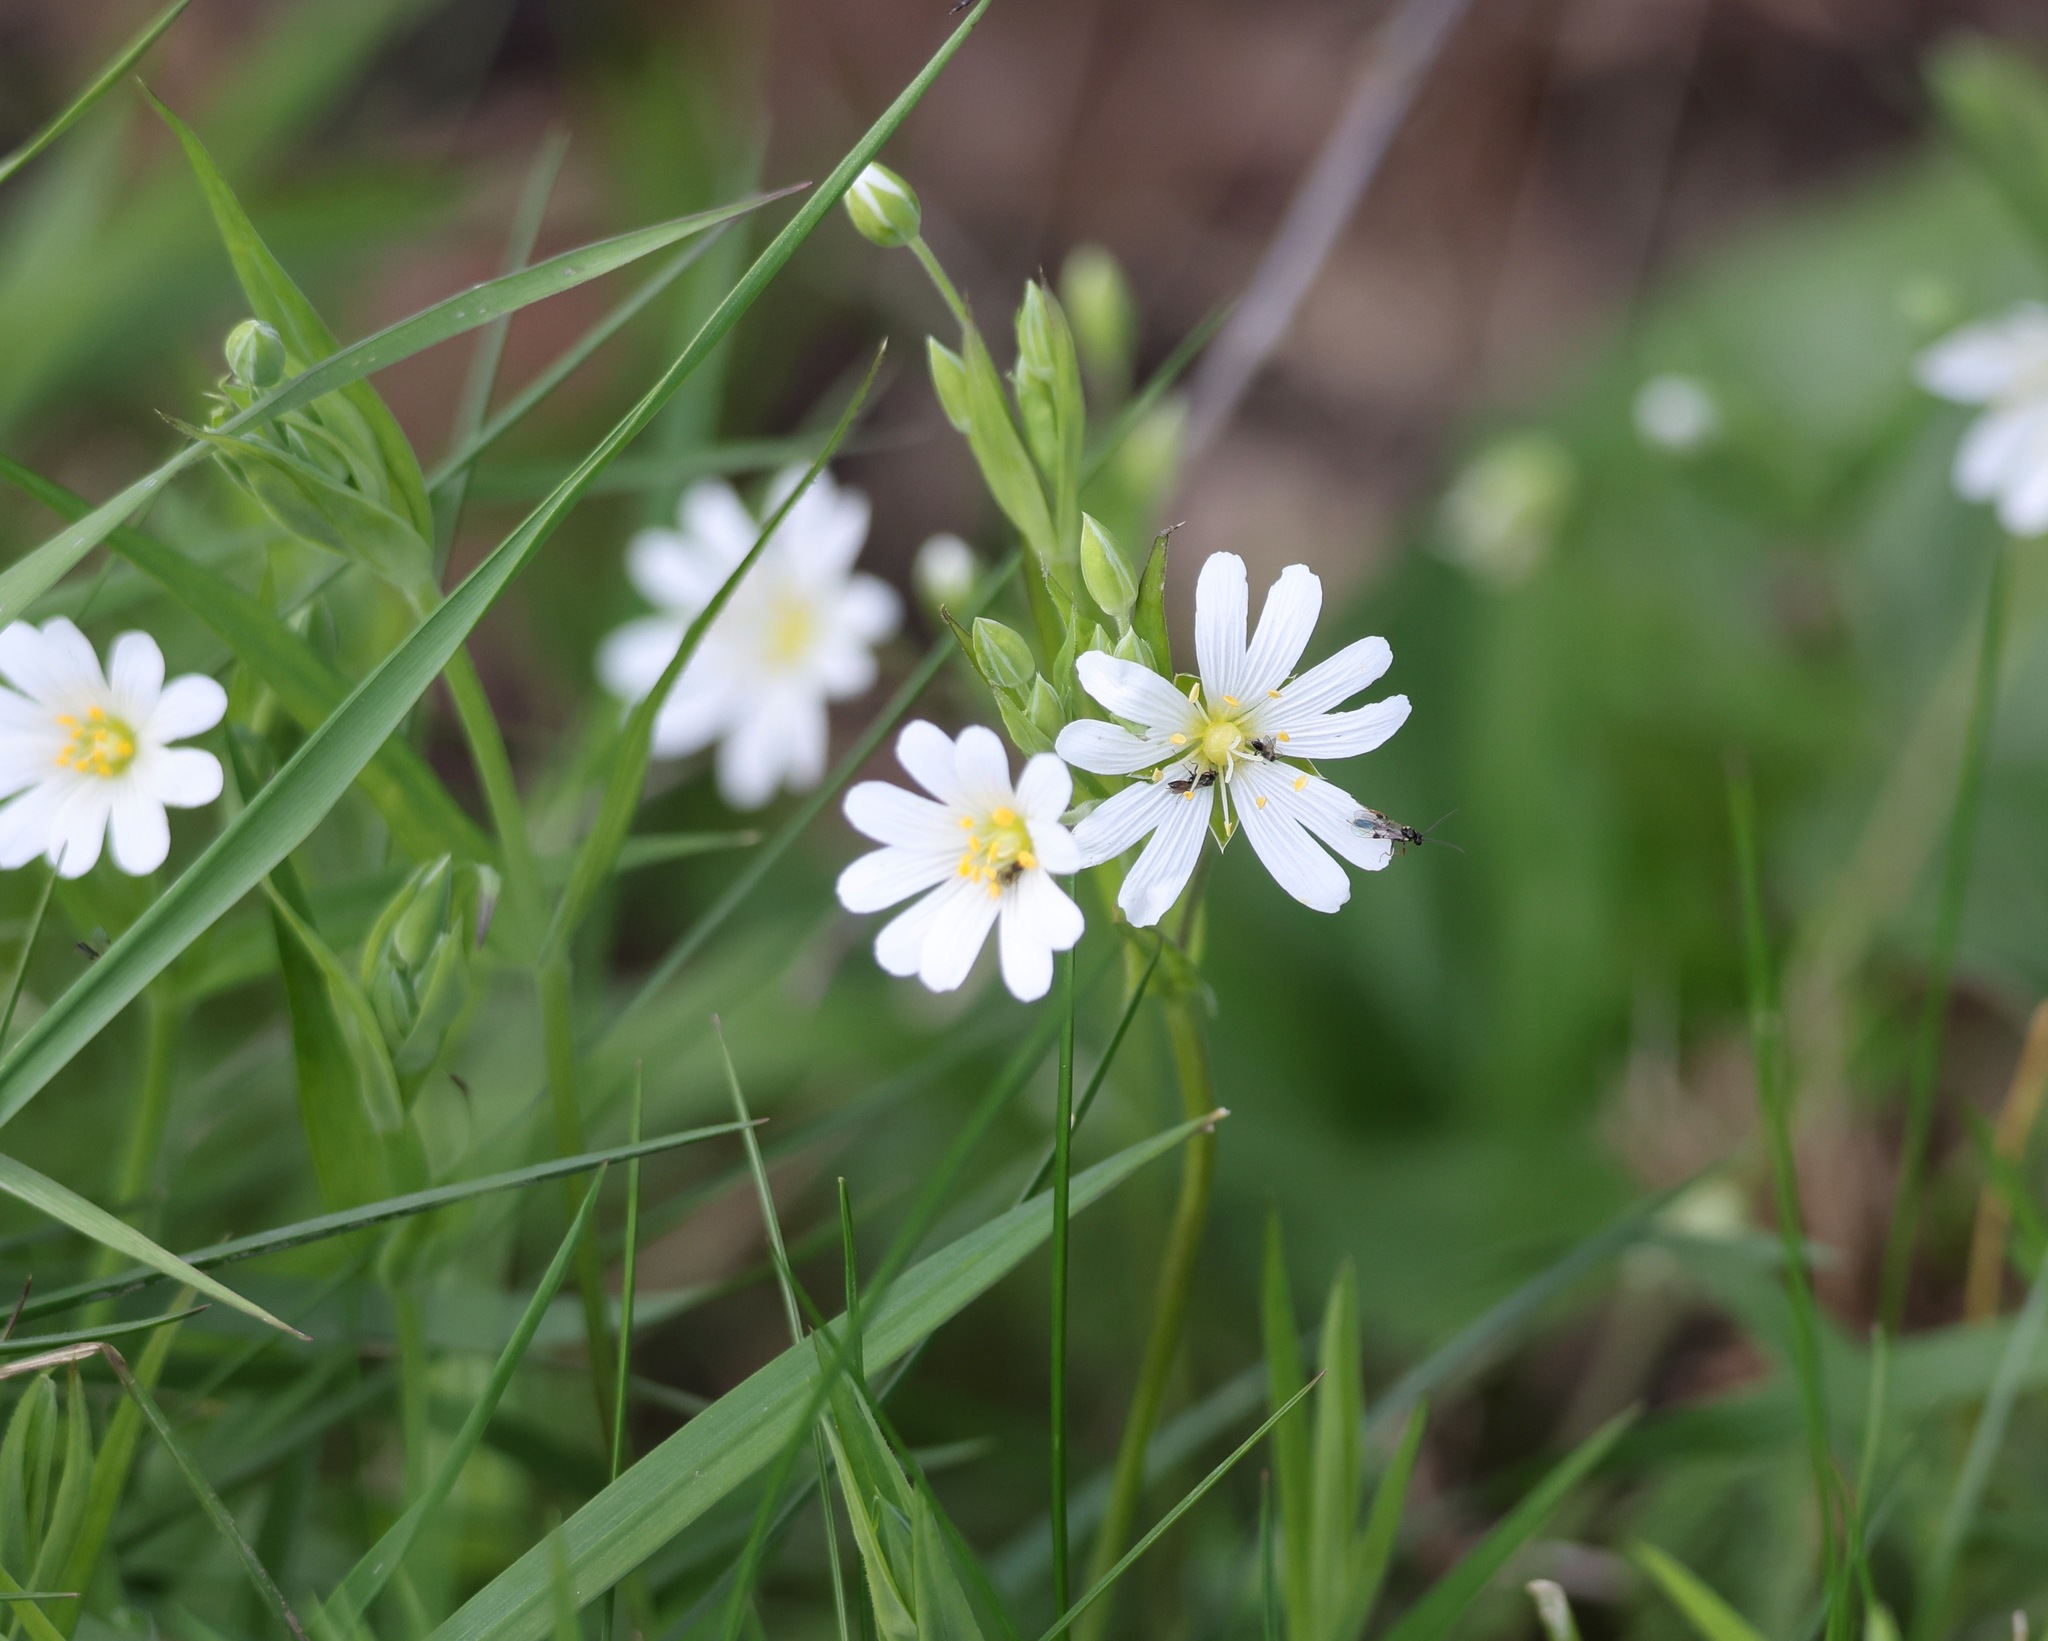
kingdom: Plantae
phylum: Tracheophyta
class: Magnoliopsida
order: Caryophyllales
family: Caryophyllaceae
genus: Rabelera
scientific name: Rabelera holostea
